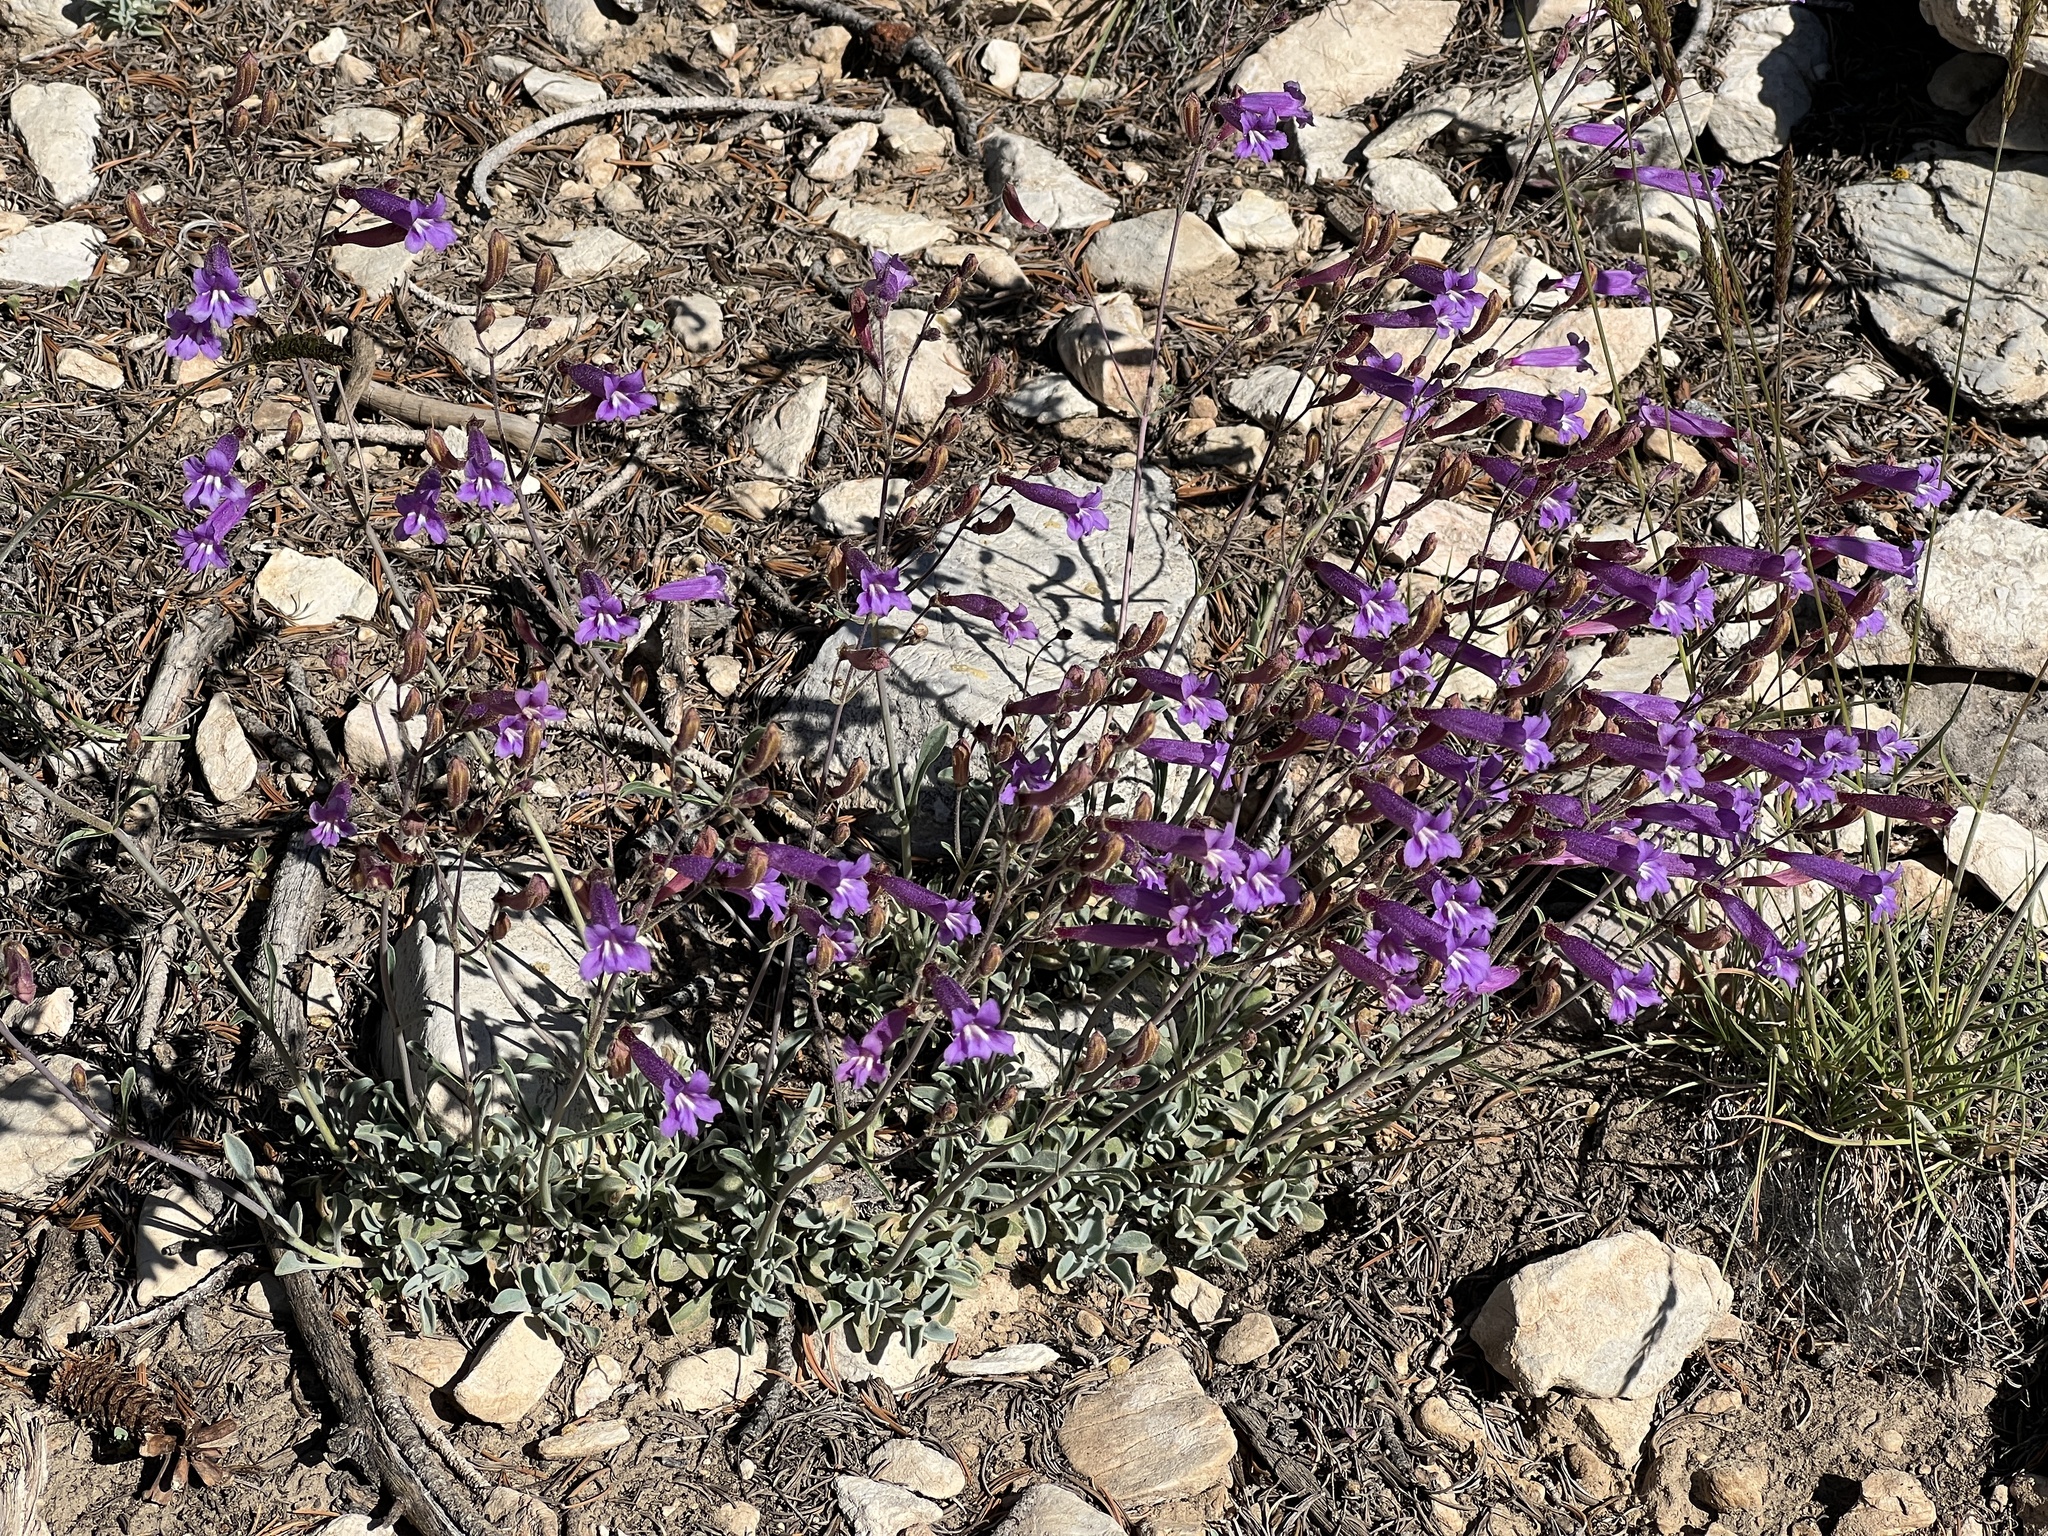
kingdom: Plantae
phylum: Tracheophyta
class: Magnoliopsida
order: Lamiales
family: Plantaginaceae
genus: Penstemon
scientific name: Penstemon scapoides
